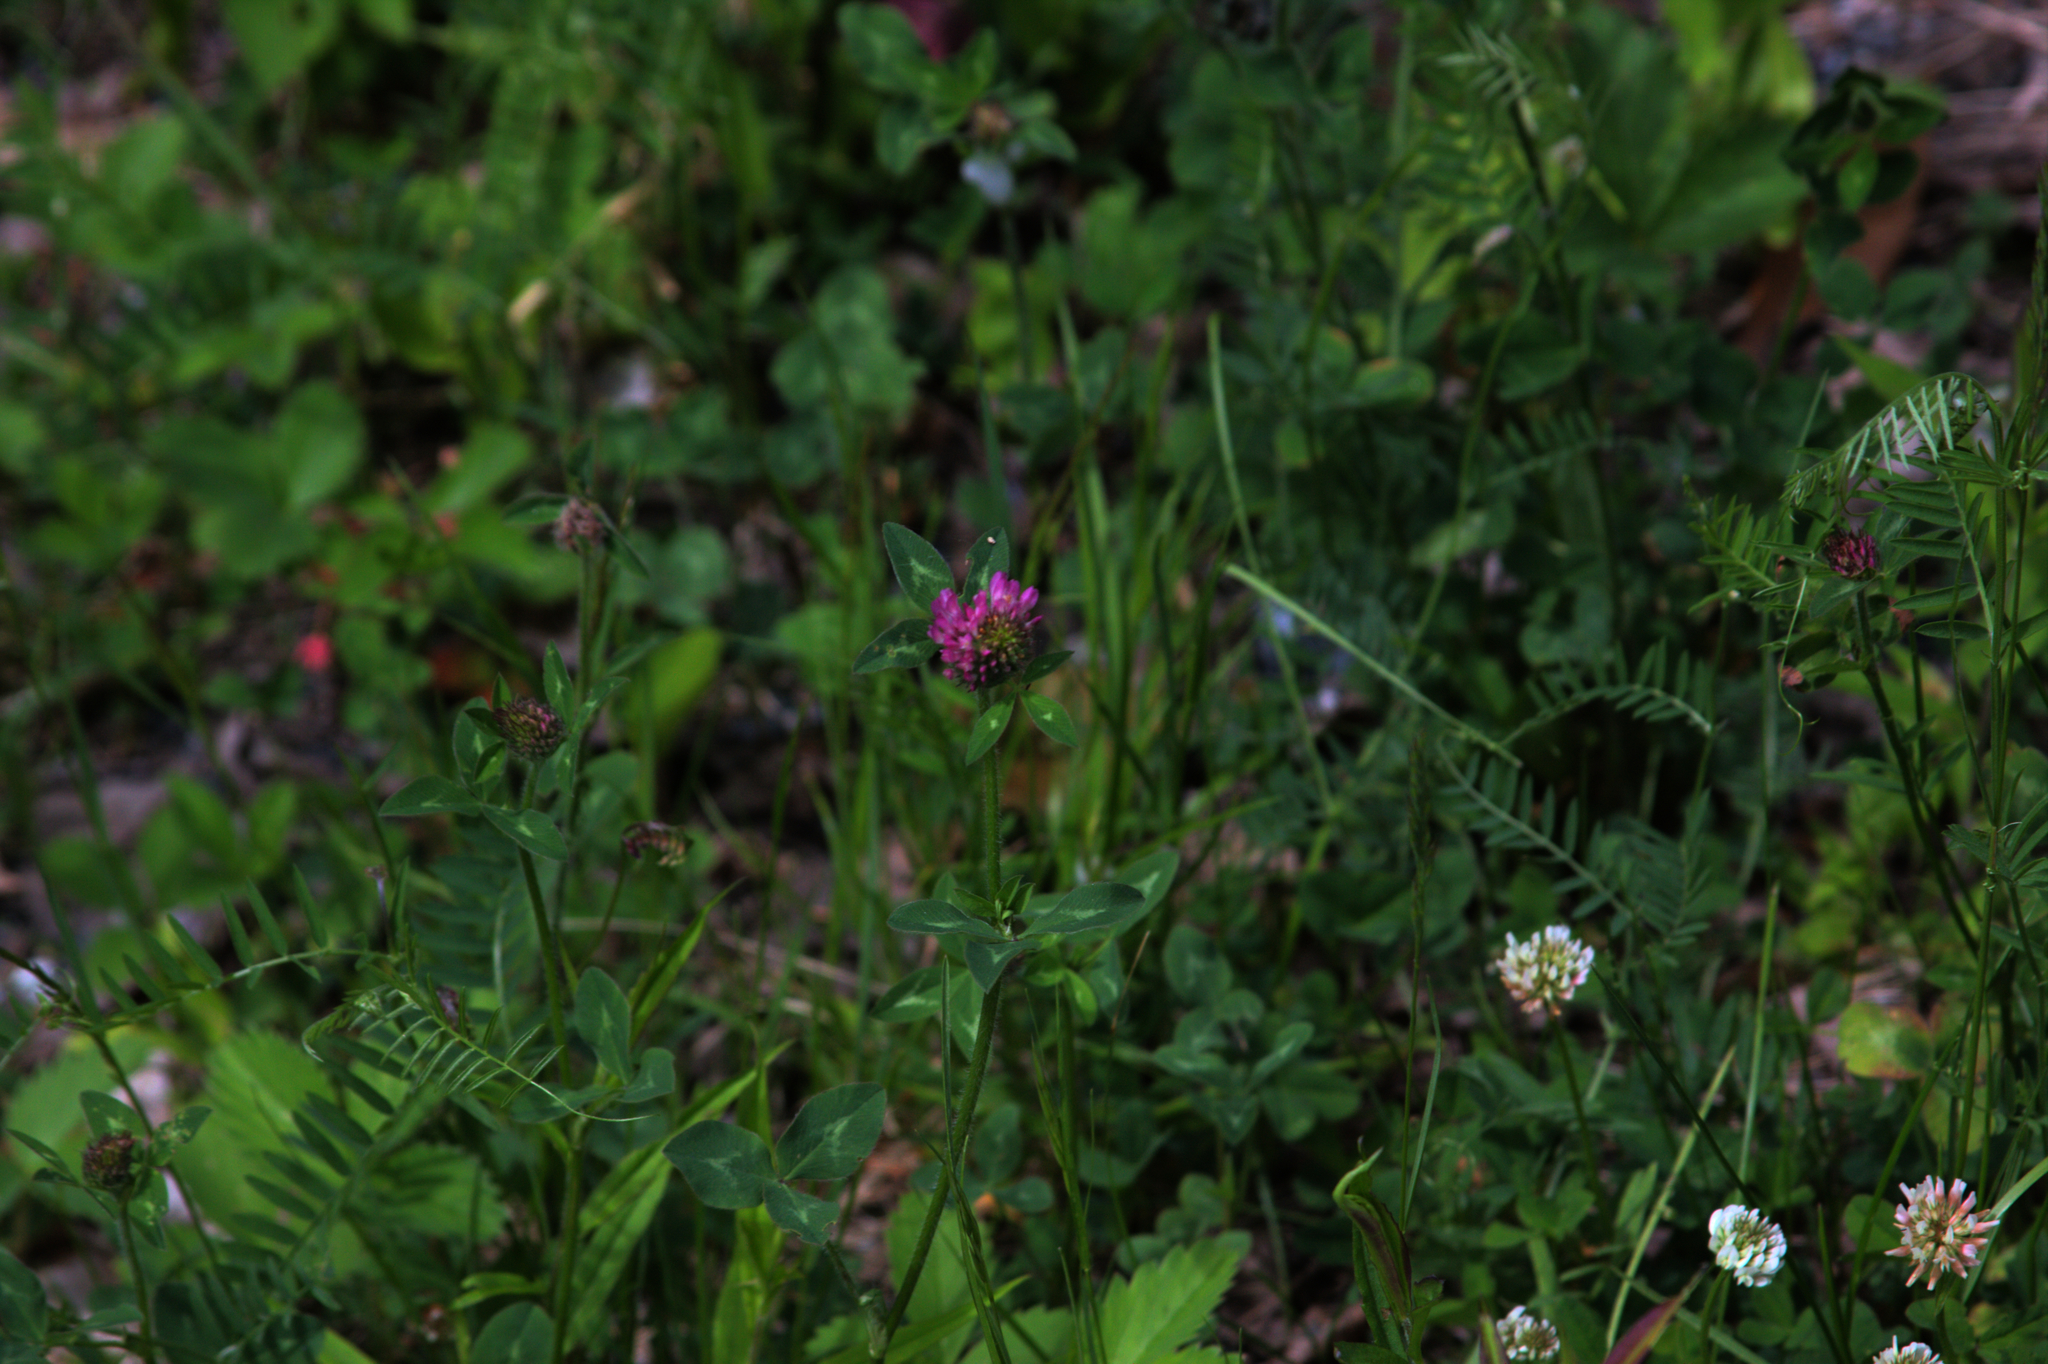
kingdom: Plantae
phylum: Tracheophyta
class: Magnoliopsida
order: Fabales
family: Fabaceae
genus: Trifolium
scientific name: Trifolium repens
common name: White clover
